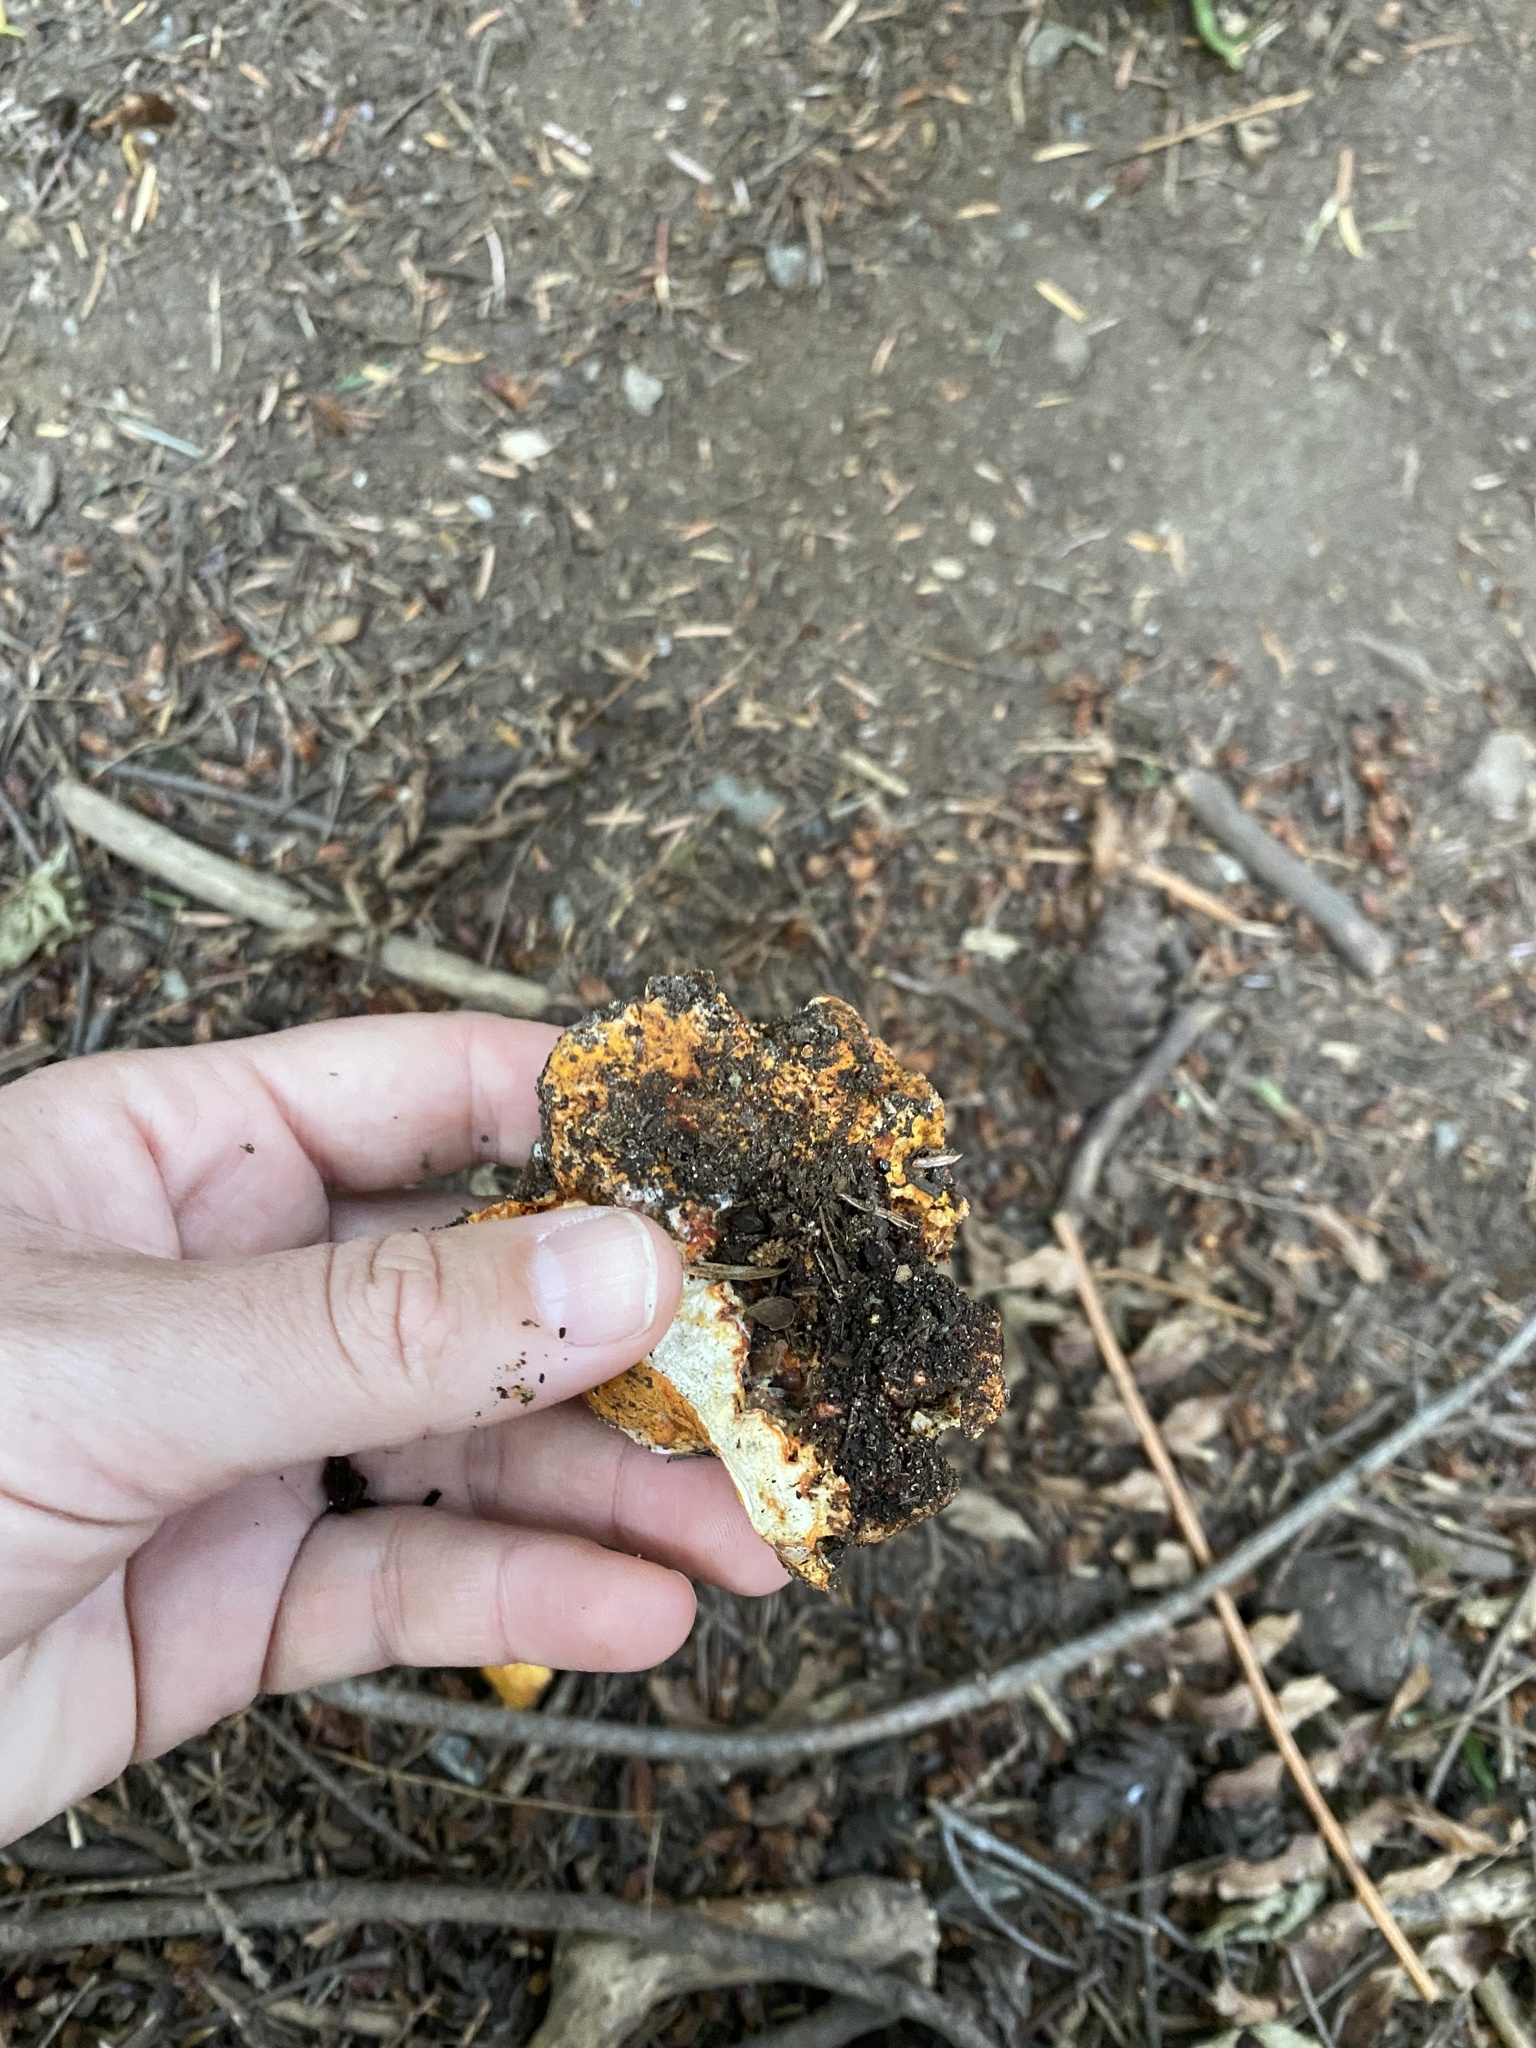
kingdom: Fungi
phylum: Ascomycota
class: Sordariomycetes
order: Hypocreales
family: Hypocreaceae
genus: Hypomyces
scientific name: Hypomyces lactifluorum
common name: Lobster mushroom
